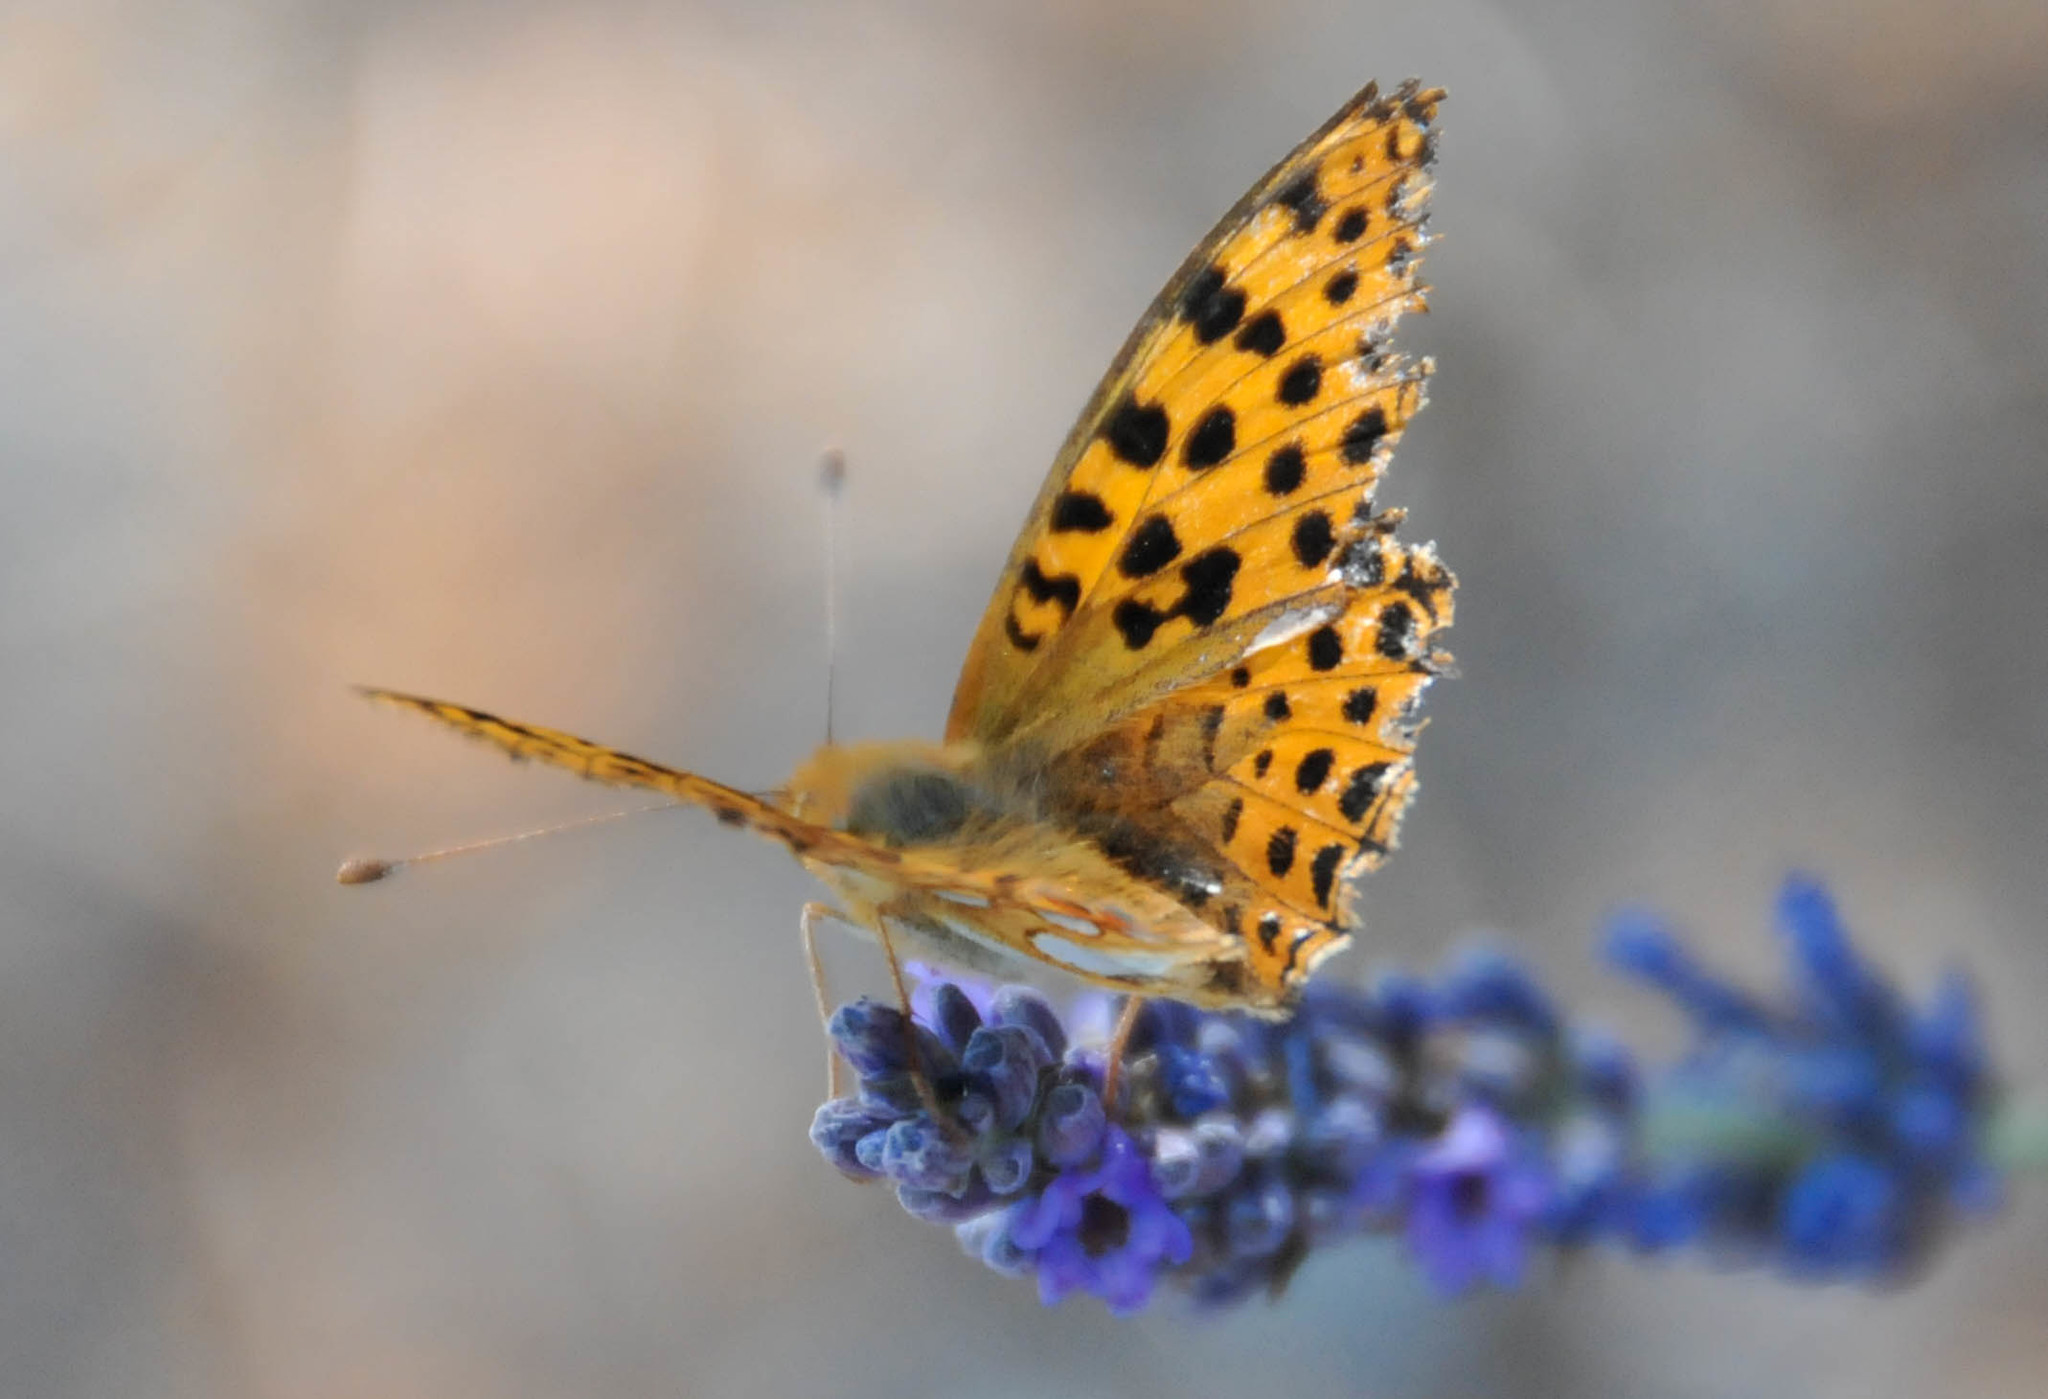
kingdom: Animalia
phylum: Arthropoda
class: Insecta
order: Lepidoptera
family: Nymphalidae
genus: Issoria
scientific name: Issoria lathonia
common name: Queen of spain fritillary
